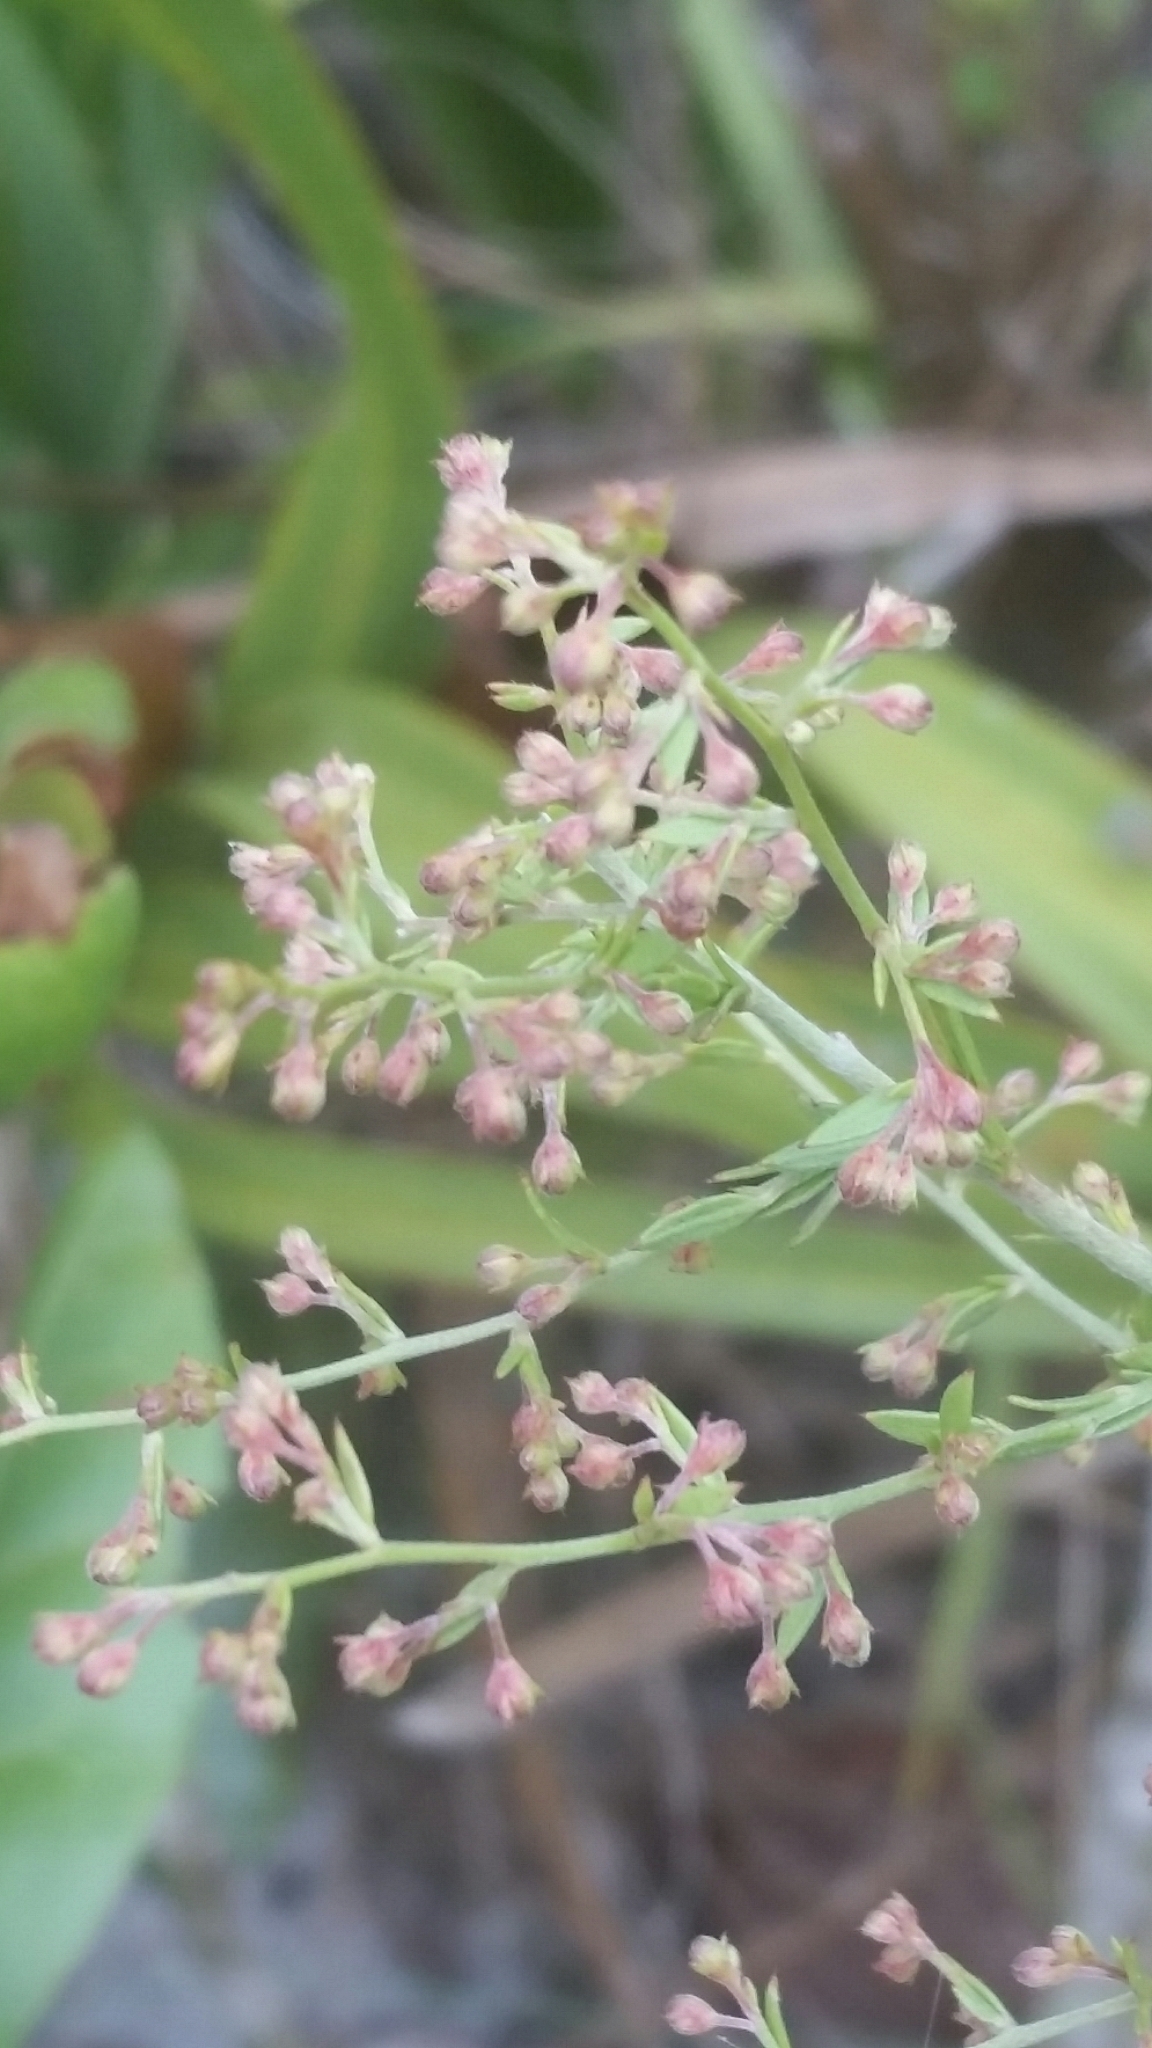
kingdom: Plantae
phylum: Tracheophyta
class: Magnoliopsida
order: Malvales
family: Cistaceae
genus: Lechea
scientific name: Lechea cernua
